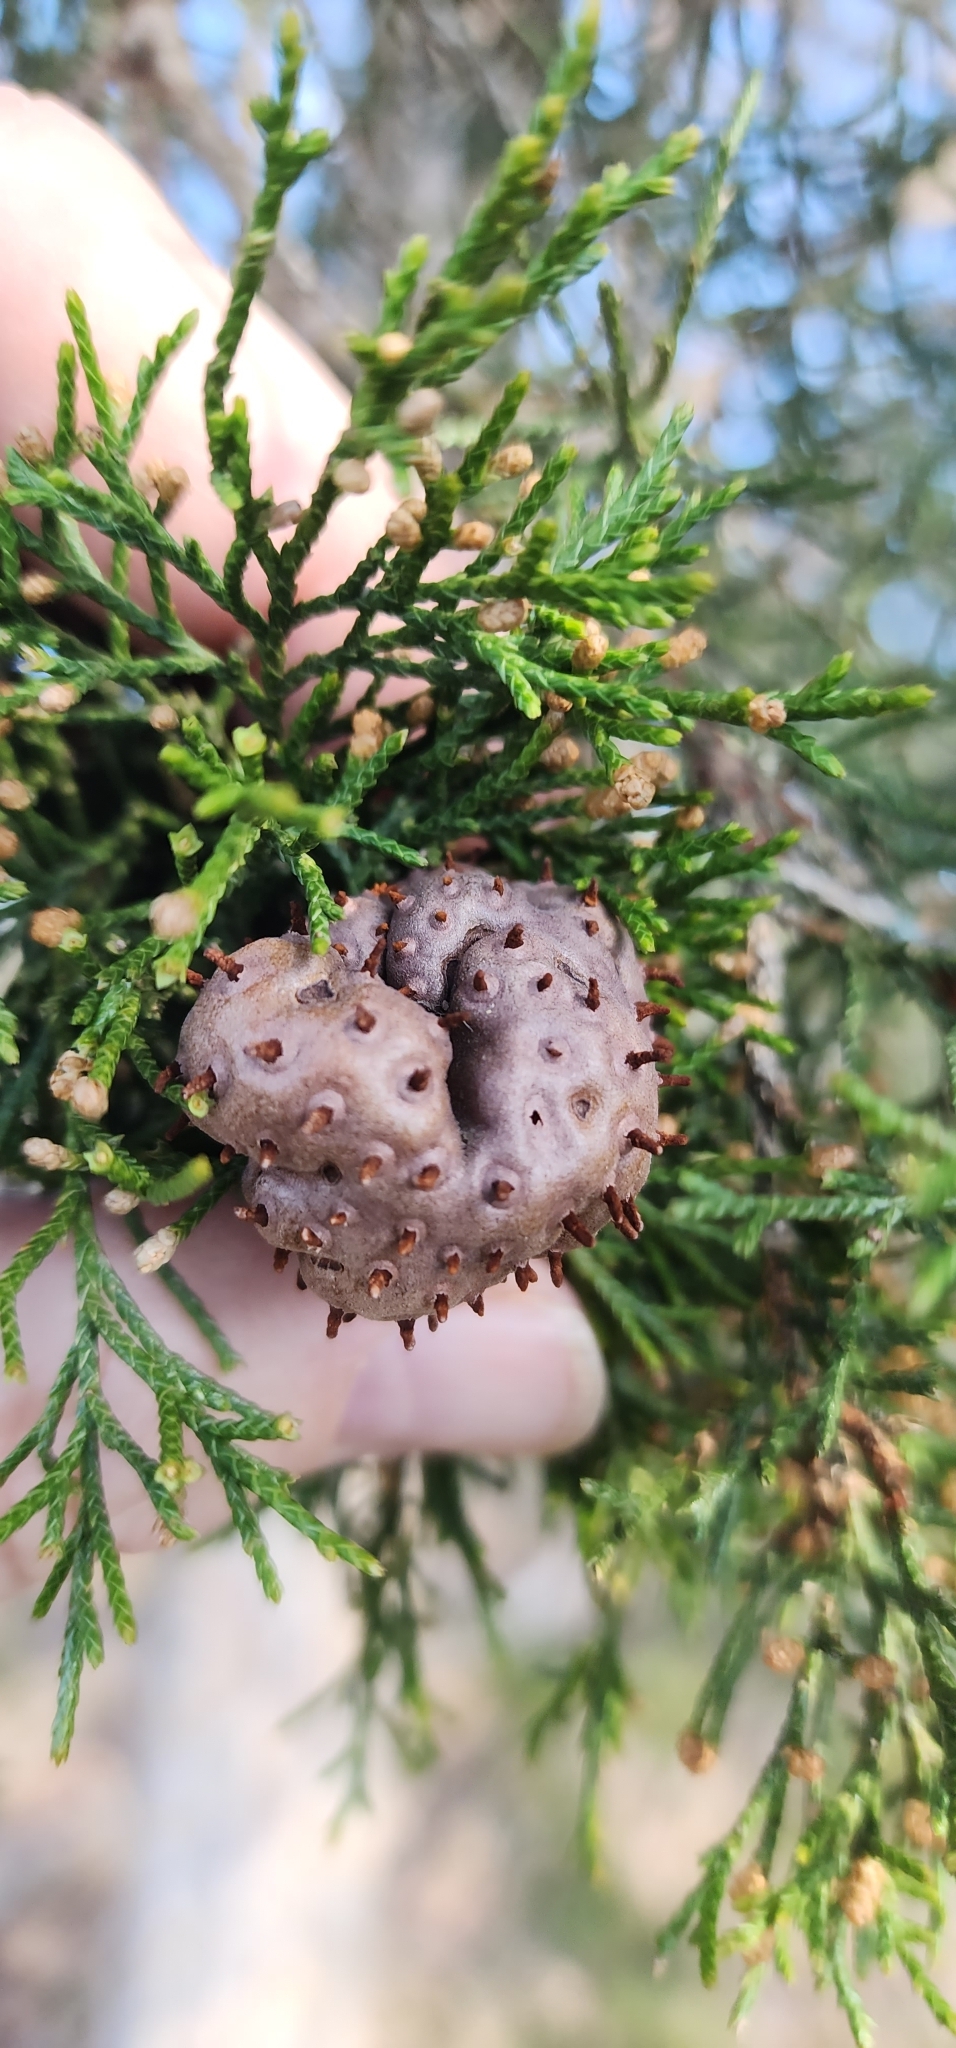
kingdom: Fungi
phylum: Basidiomycota
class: Pucciniomycetes
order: Pucciniales
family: Gymnosporangiaceae
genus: Gymnosporangium
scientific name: Gymnosporangium juniperi-virginianae
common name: Juniper-apple rust
